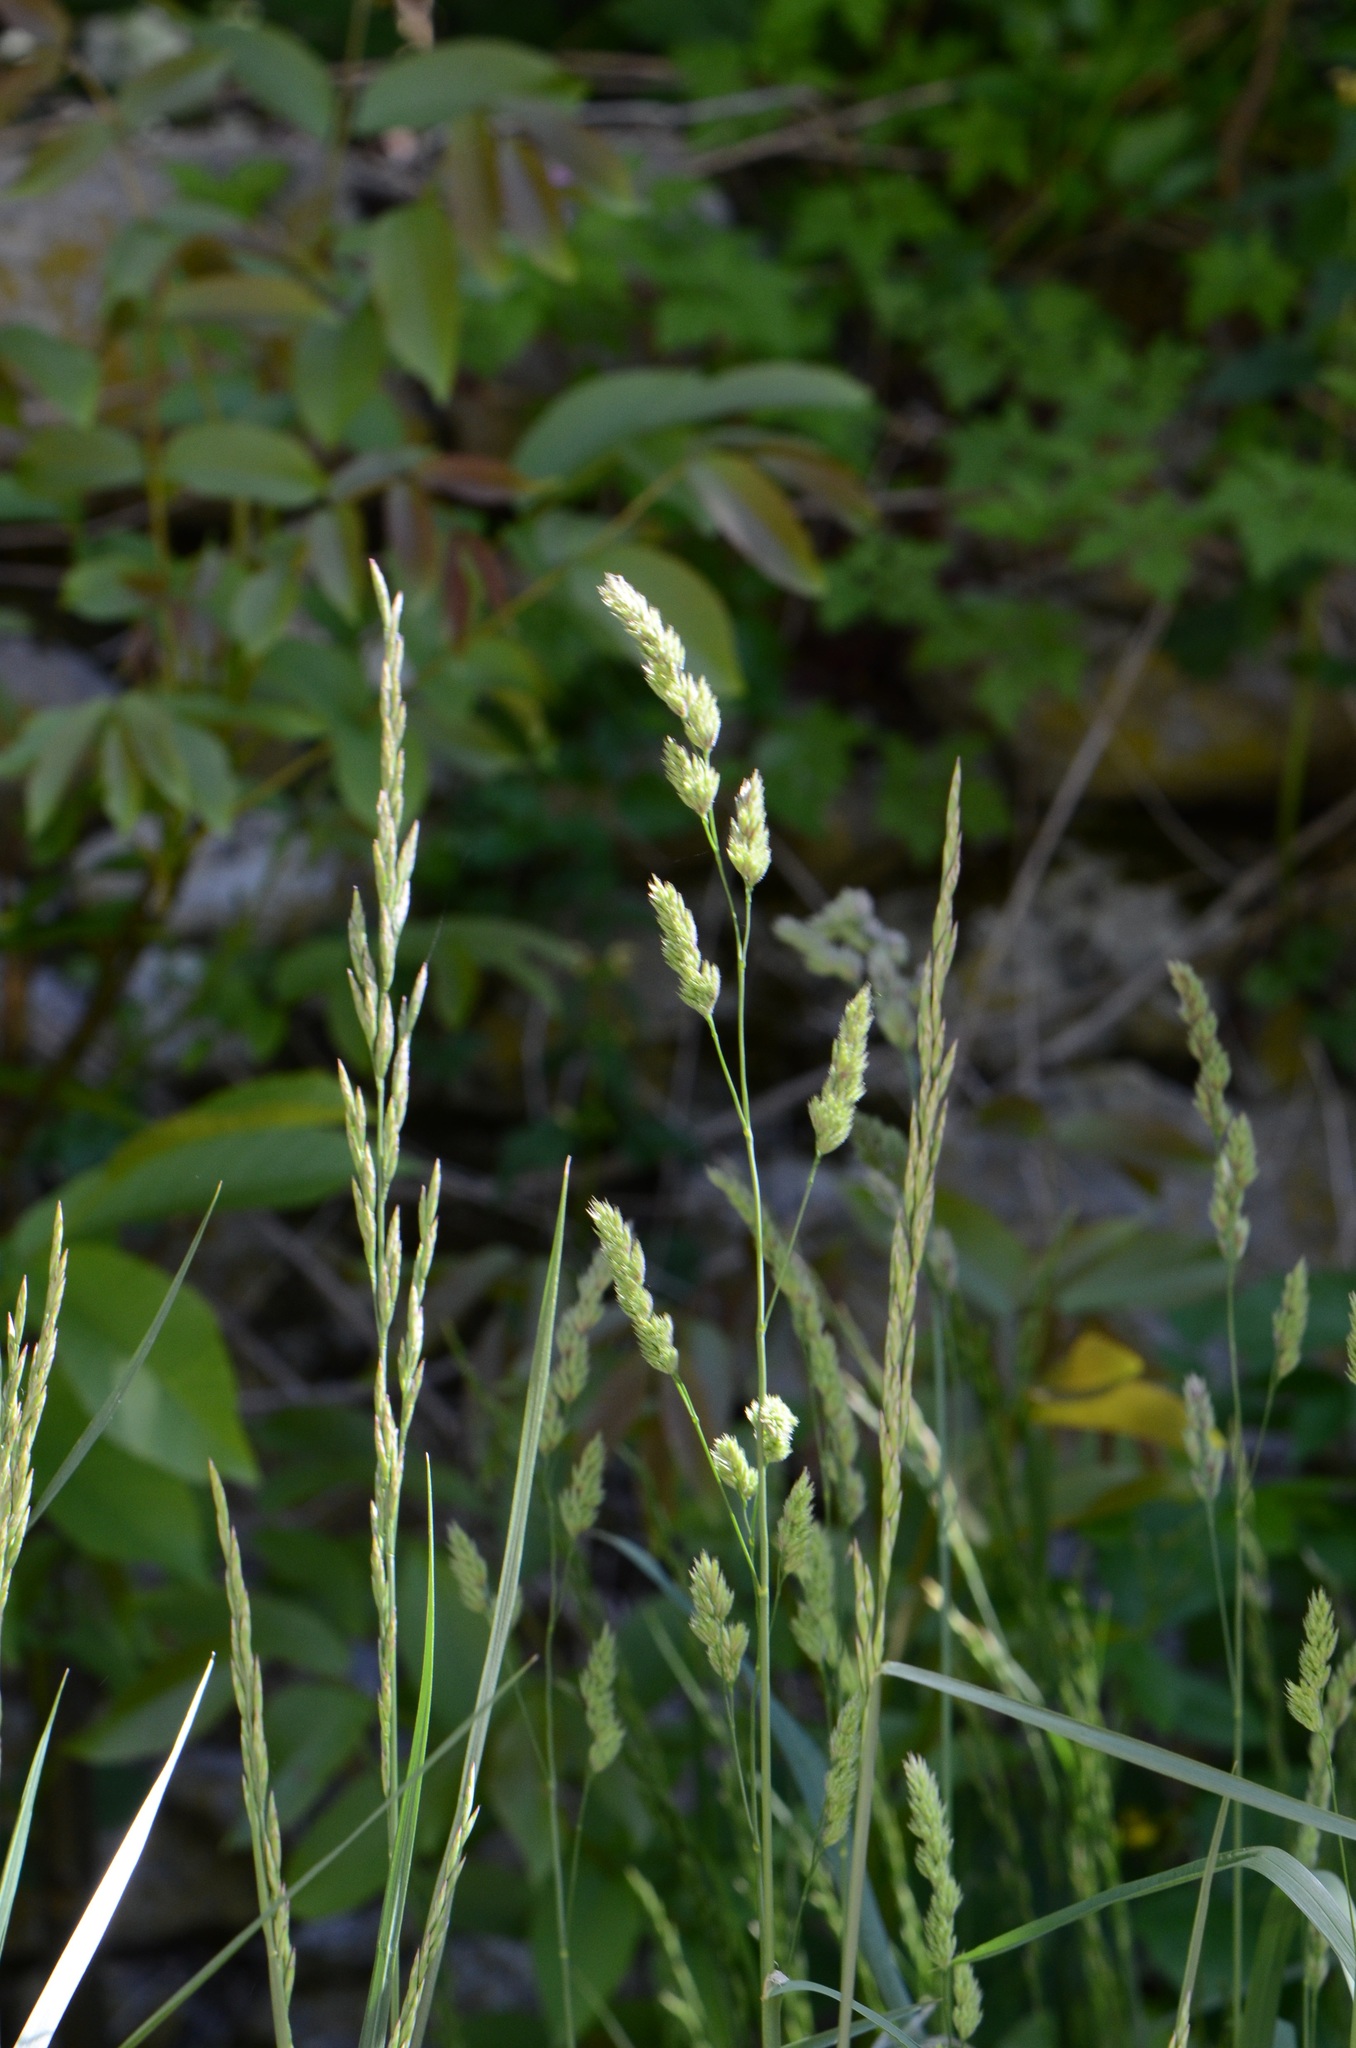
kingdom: Plantae
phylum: Tracheophyta
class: Liliopsida
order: Poales
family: Poaceae
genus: Dactylis
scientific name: Dactylis glomerata
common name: Orchardgrass
